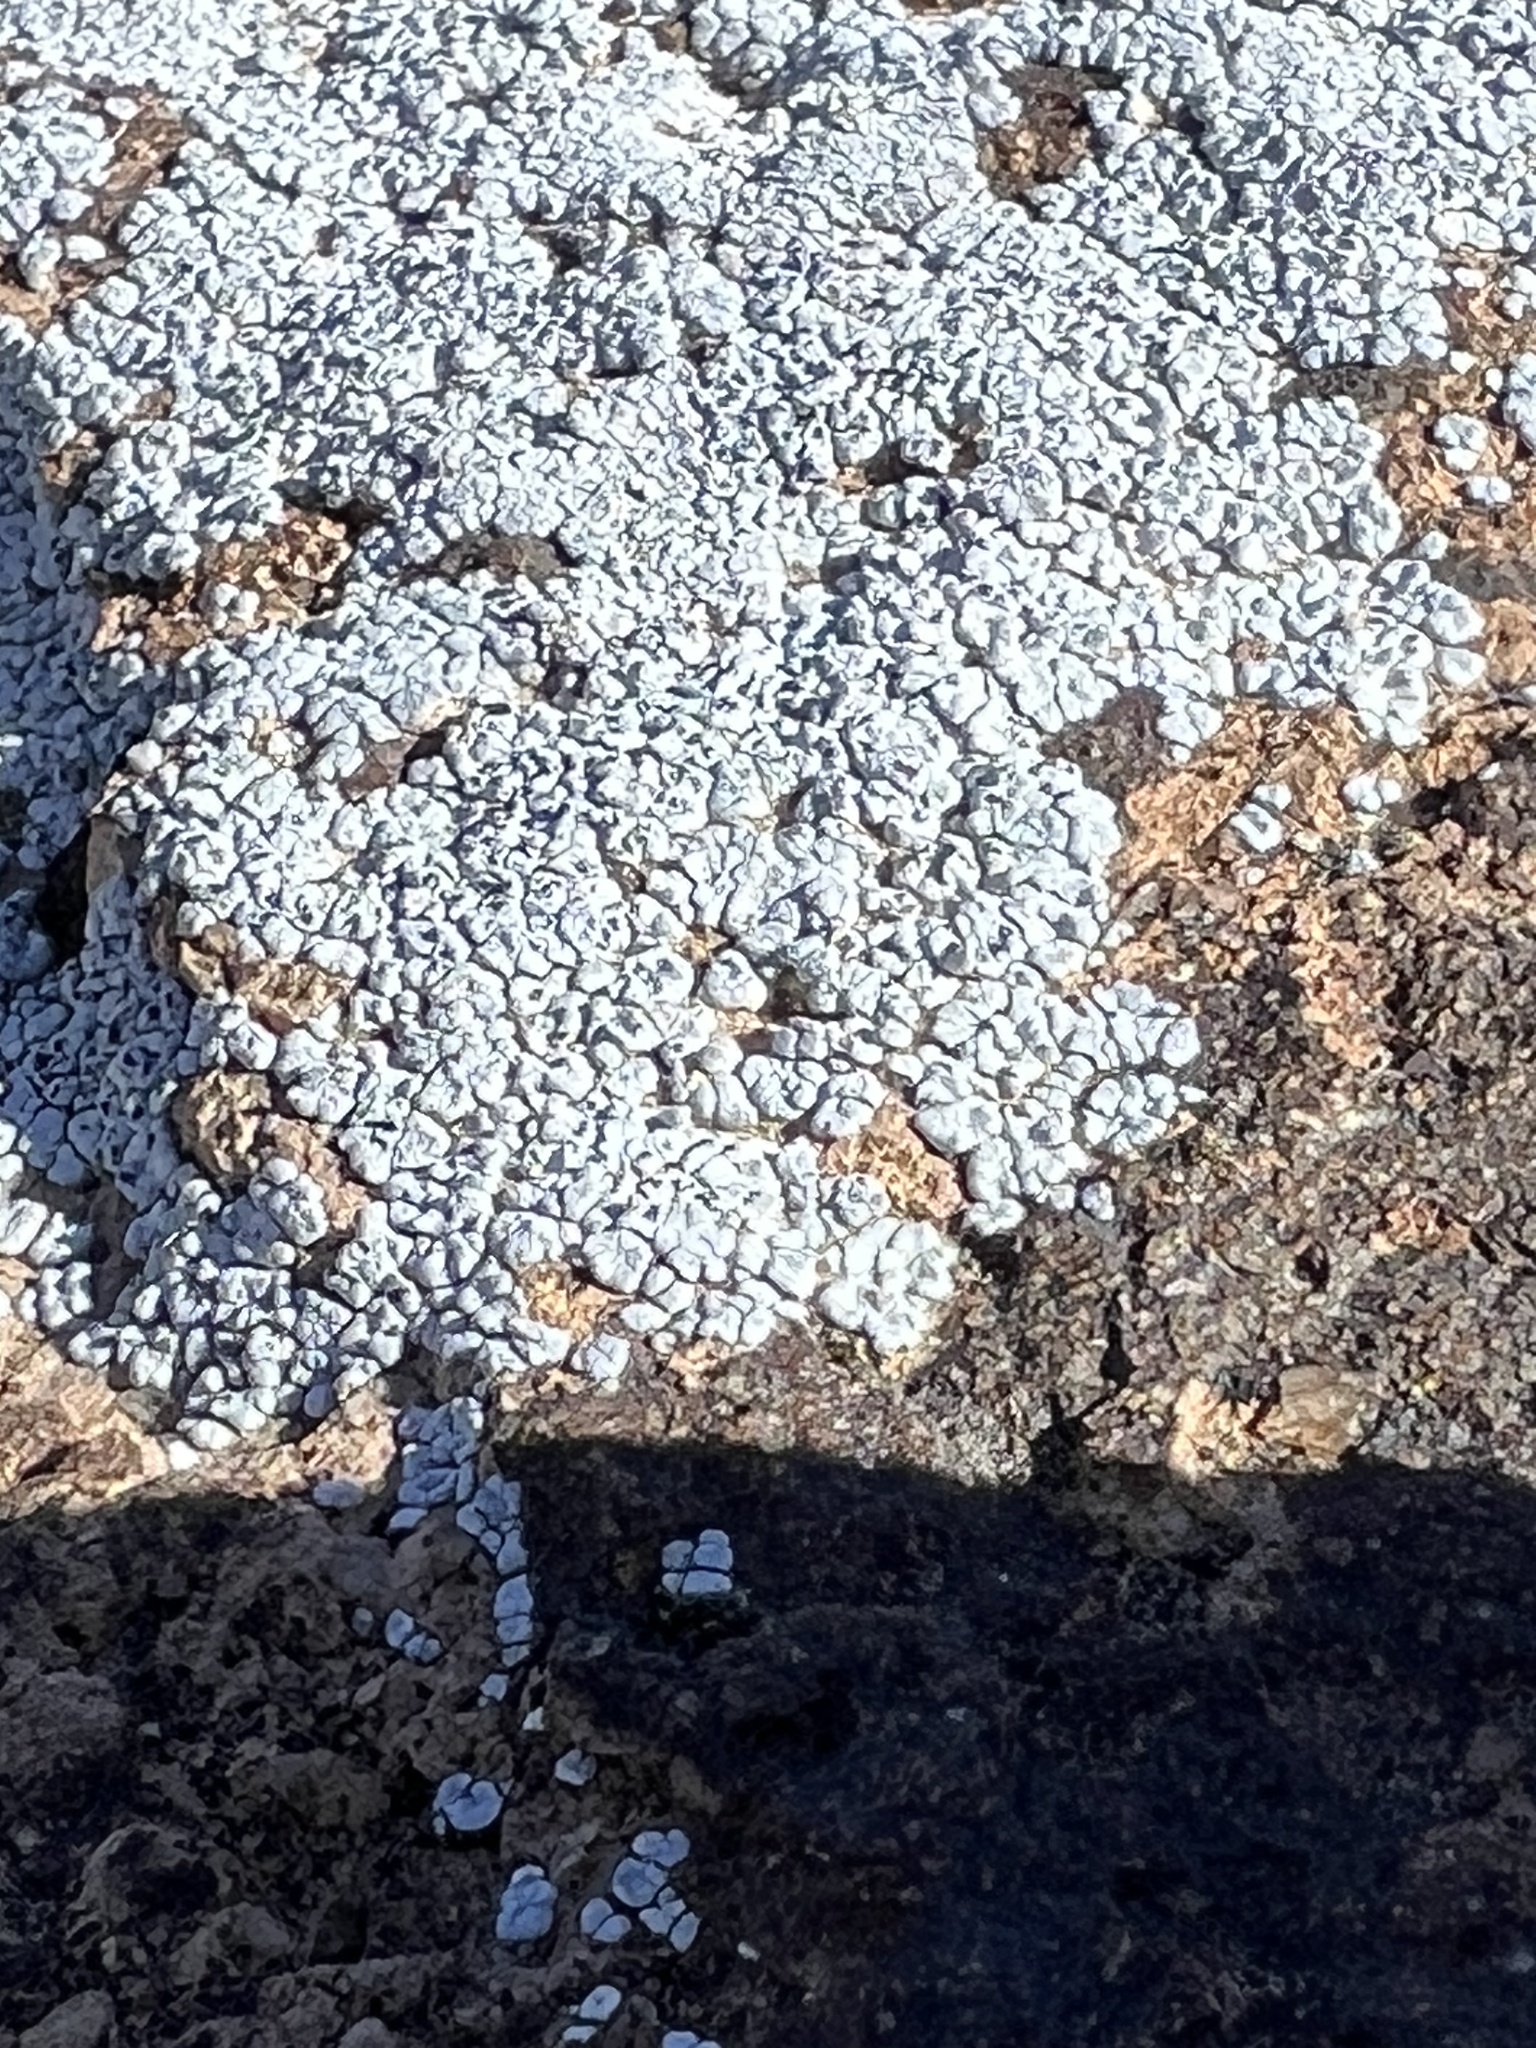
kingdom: Fungi
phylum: Ascomycota
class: Lecanoromycetes
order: Acarosporales
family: Acarosporaceae
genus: Acarospora
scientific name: Acarospora strigata
